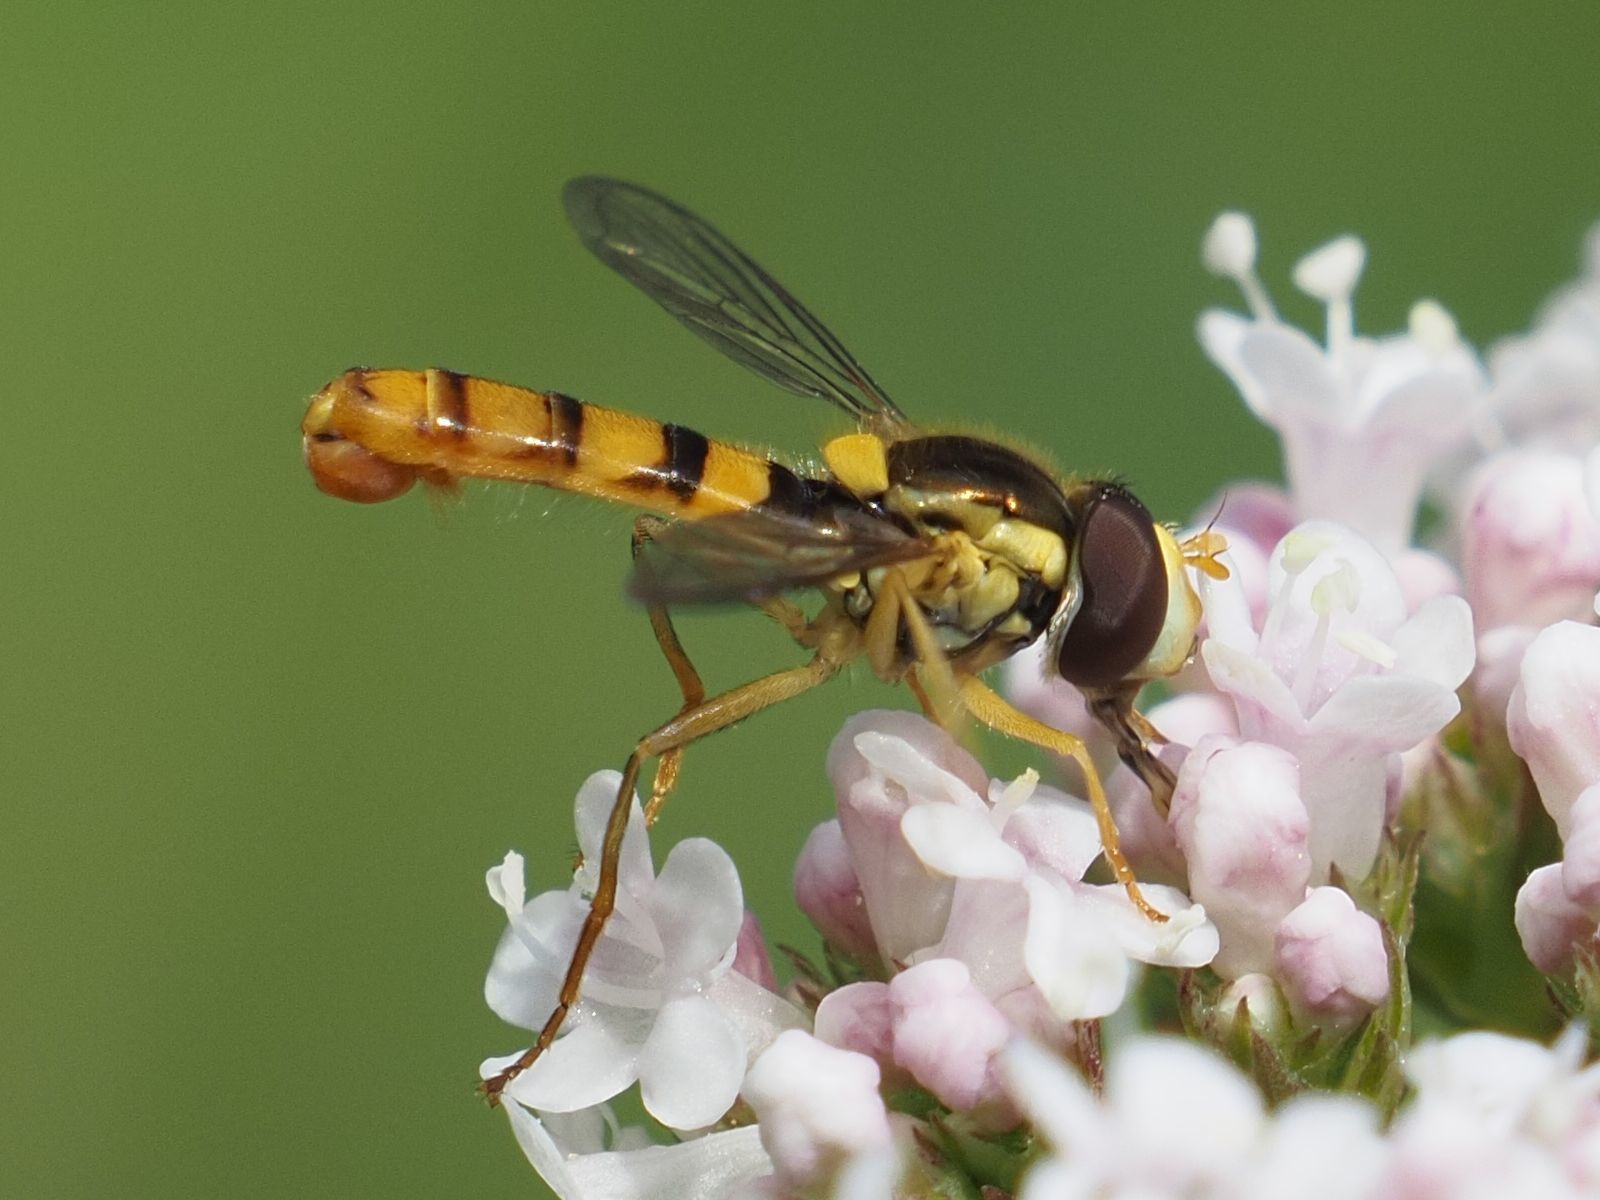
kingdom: Animalia
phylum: Arthropoda
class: Insecta
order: Diptera
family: Syrphidae
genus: Sphaerophoria
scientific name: Sphaerophoria
